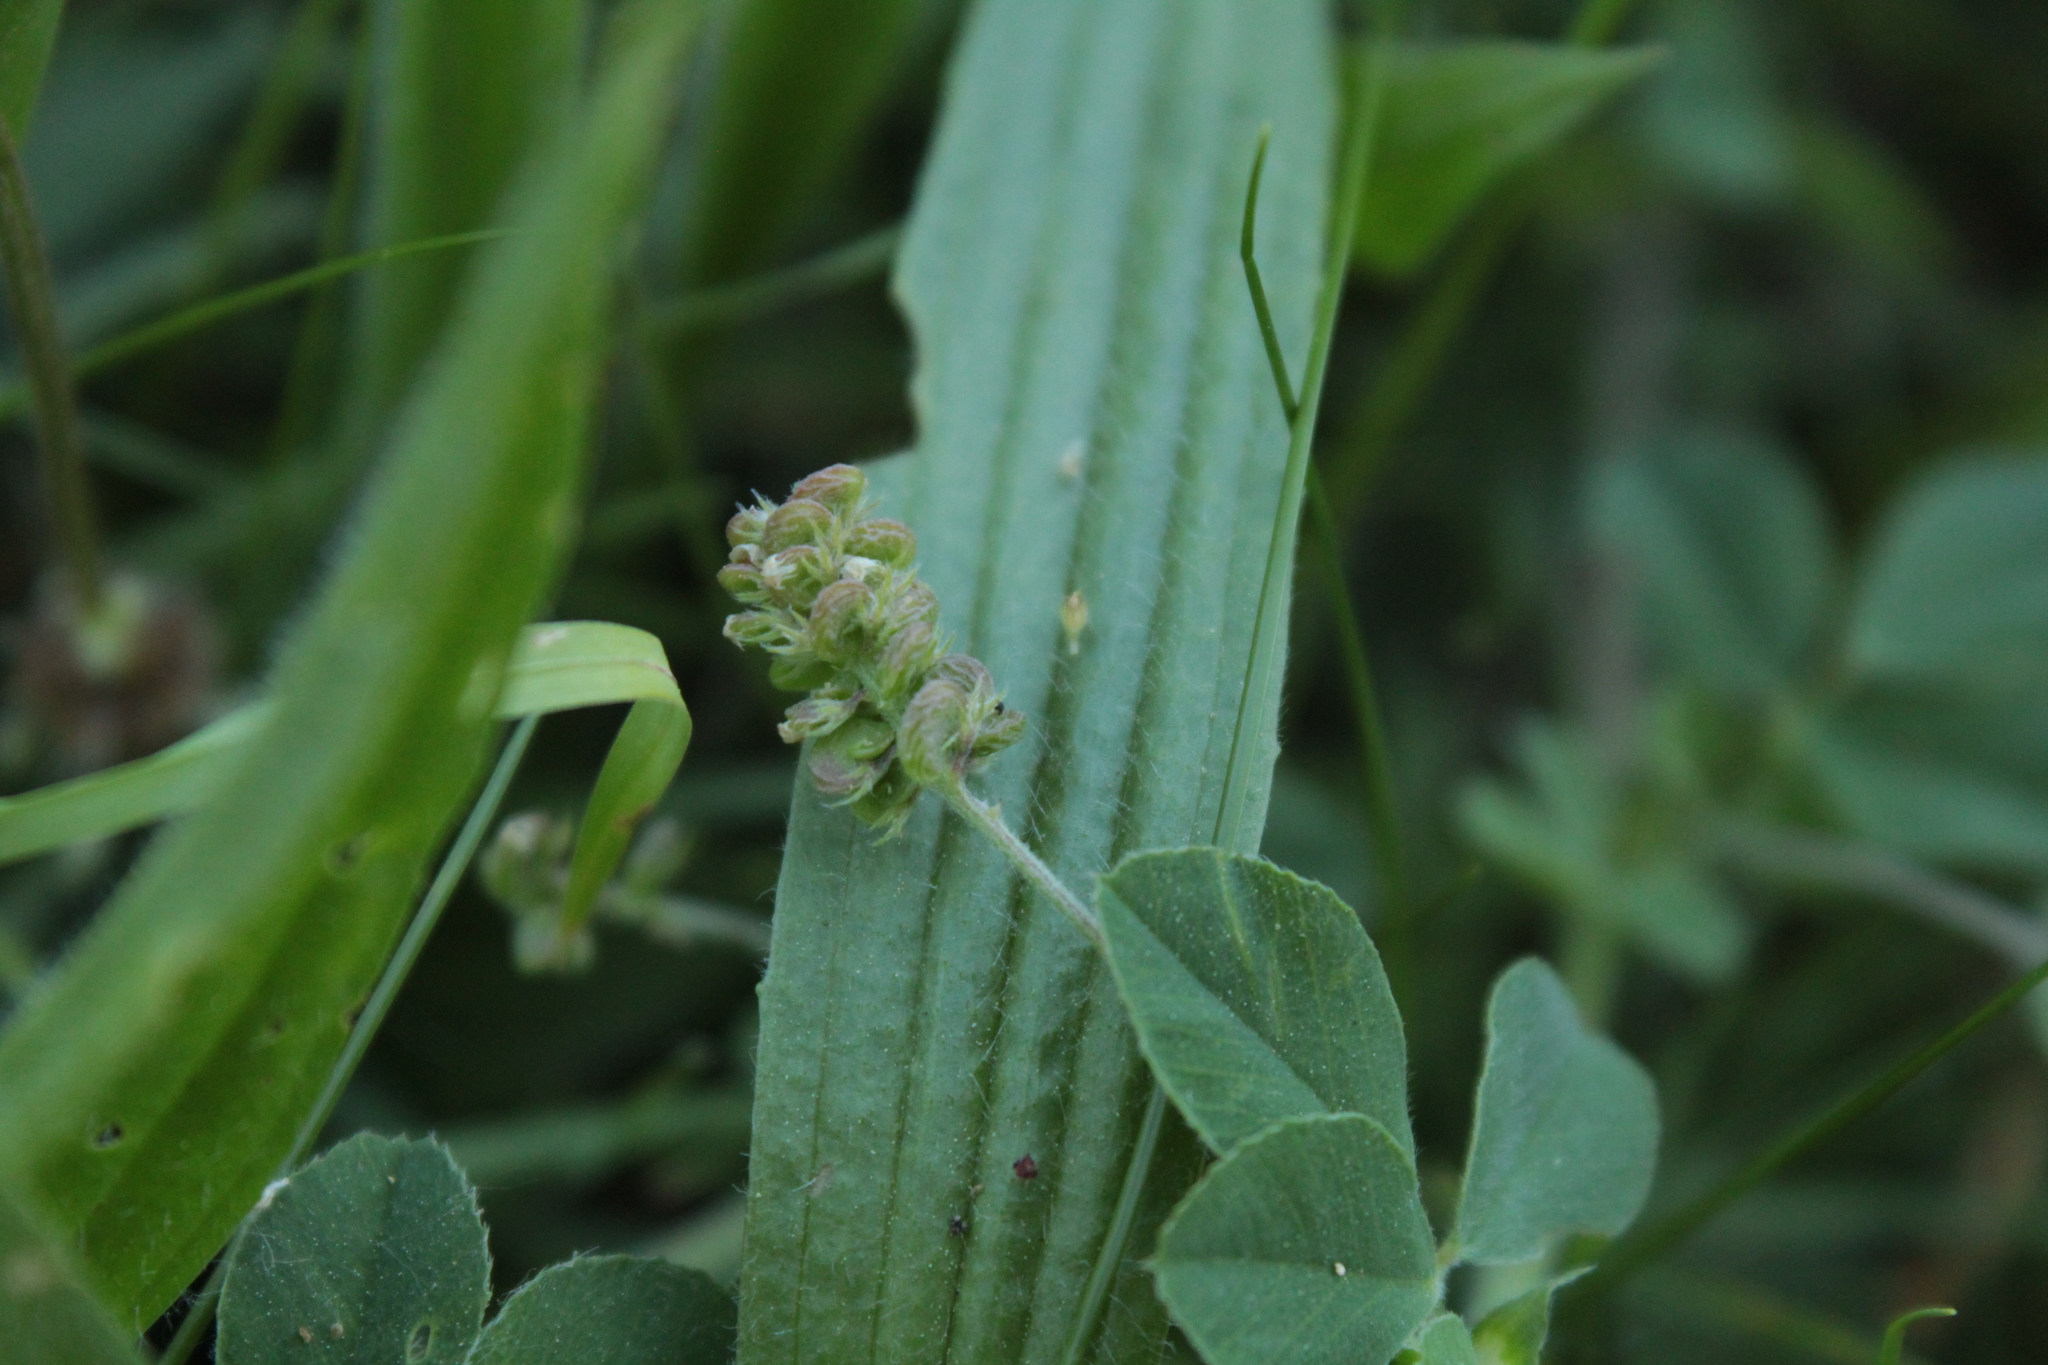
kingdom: Plantae
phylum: Tracheophyta
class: Magnoliopsida
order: Fabales
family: Fabaceae
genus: Medicago
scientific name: Medicago lupulina
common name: Black medick
